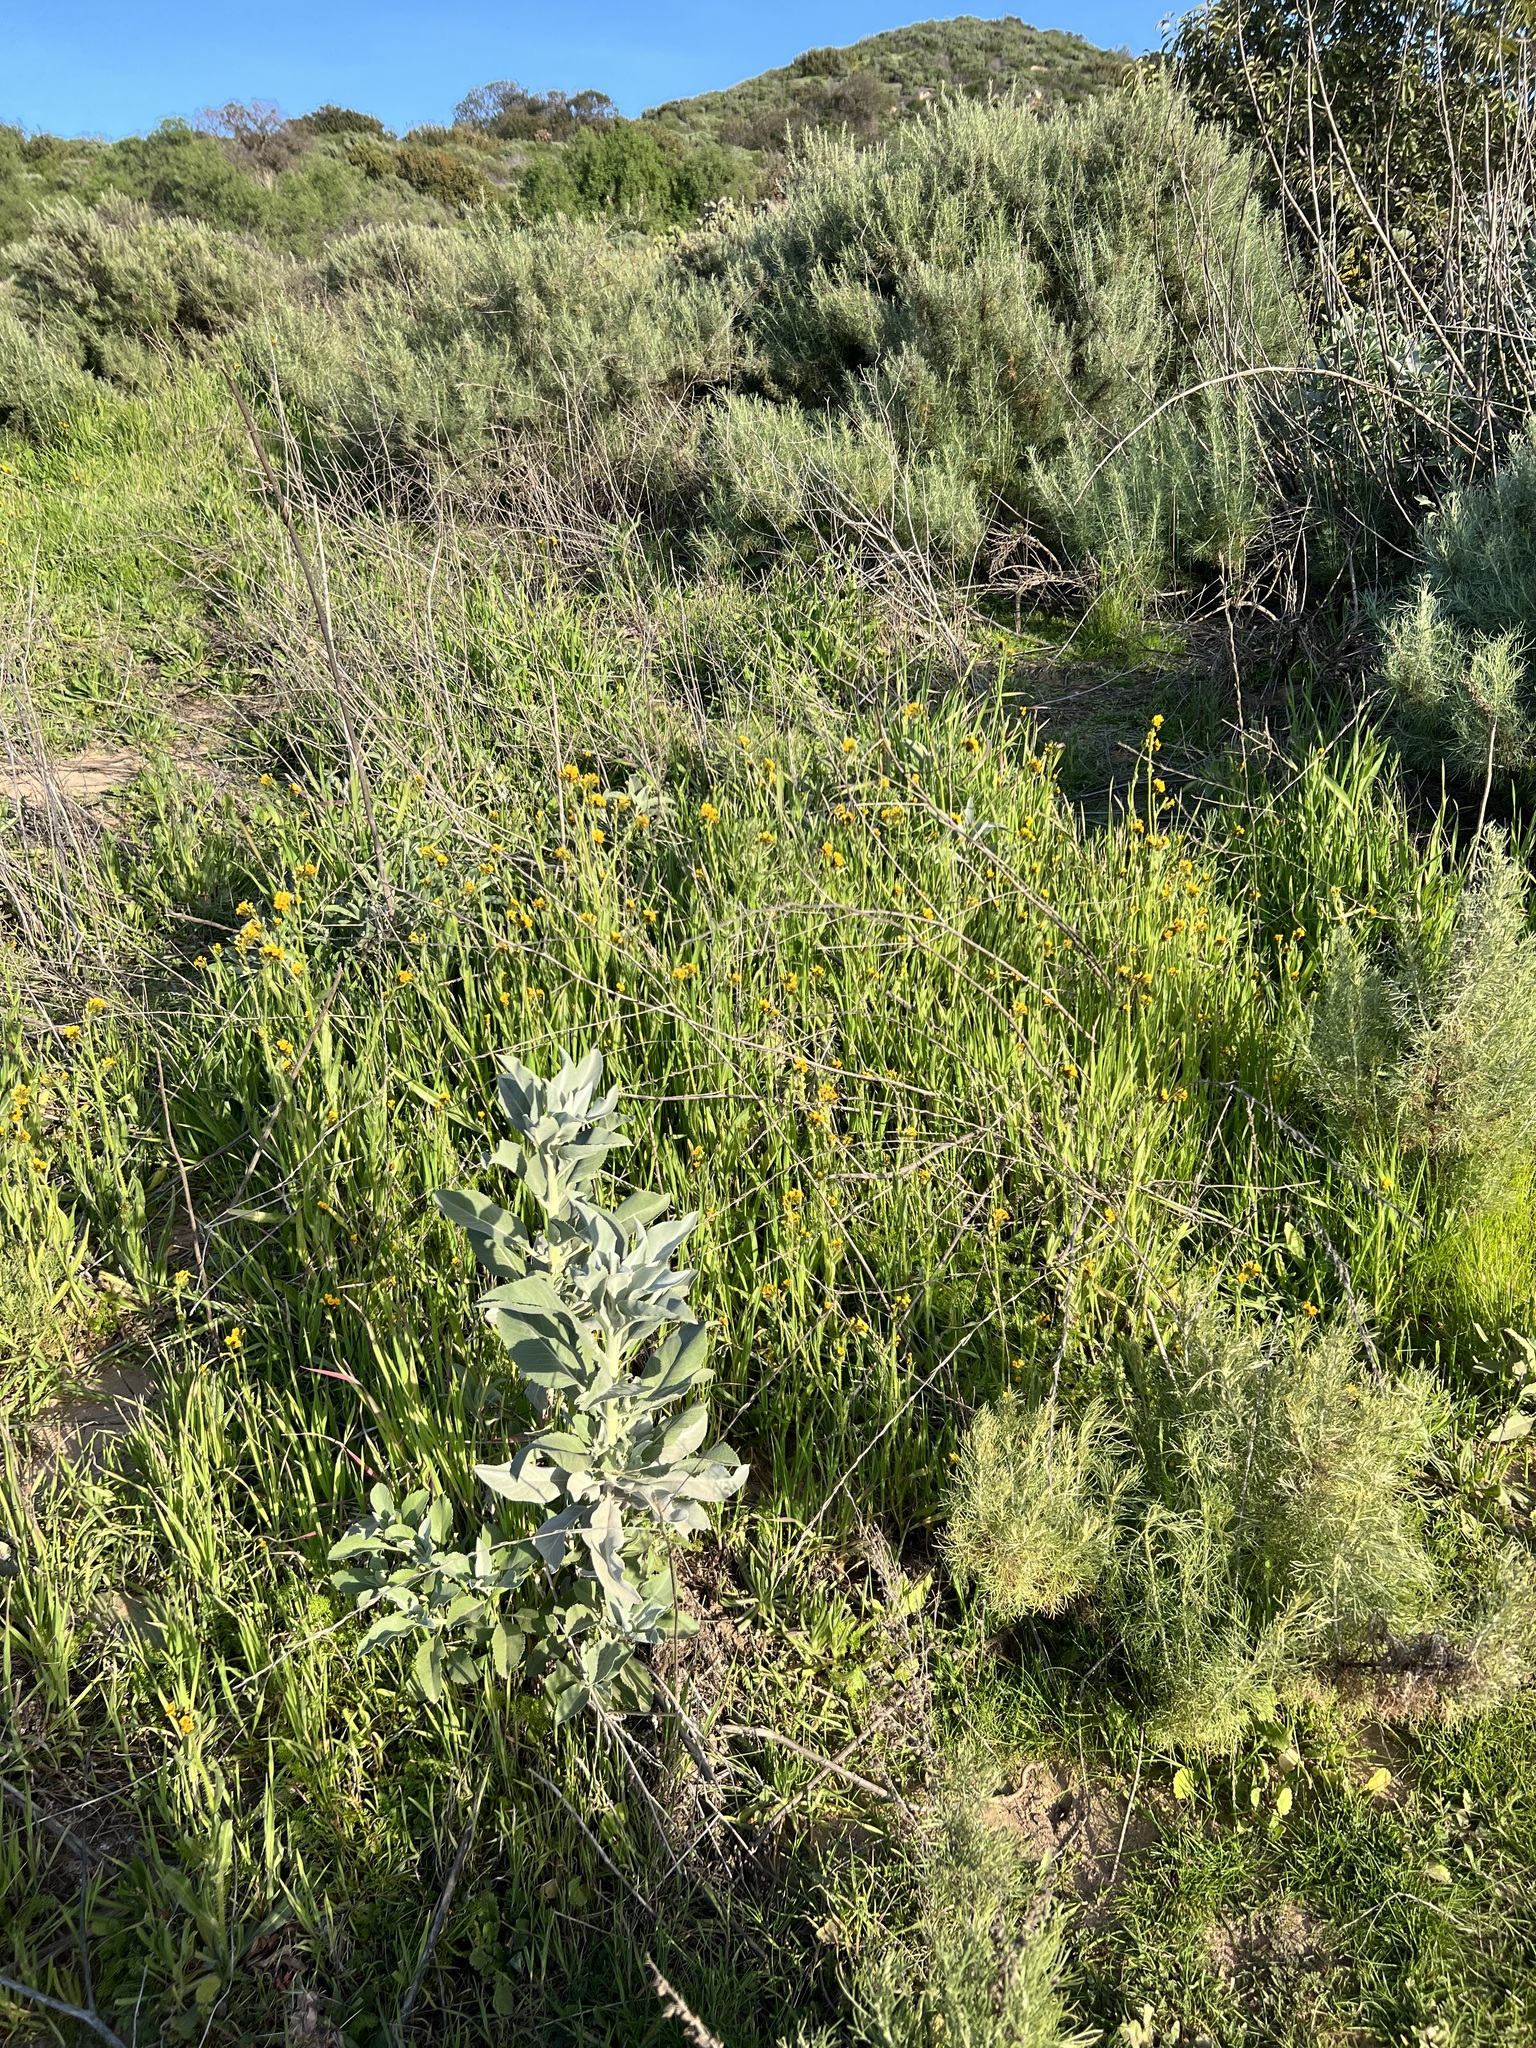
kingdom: Plantae
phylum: Tracheophyta
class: Magnoliopsida
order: Lamiales
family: Lamiaceae
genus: Salvia
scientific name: Salvia apiana
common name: White sage
